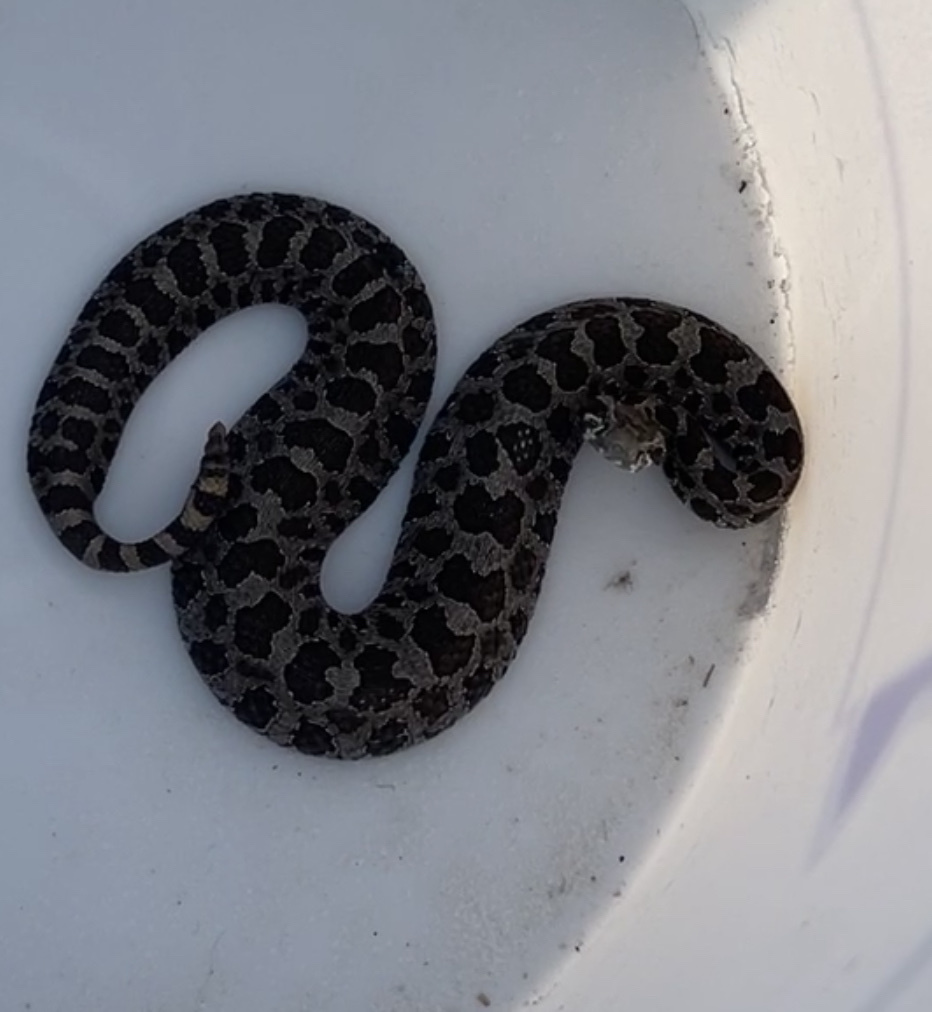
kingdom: Animalia
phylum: Chordata
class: Squamata
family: Viperidae
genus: Sistrurus
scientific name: Sistrurus catenatus
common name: Massasauga
